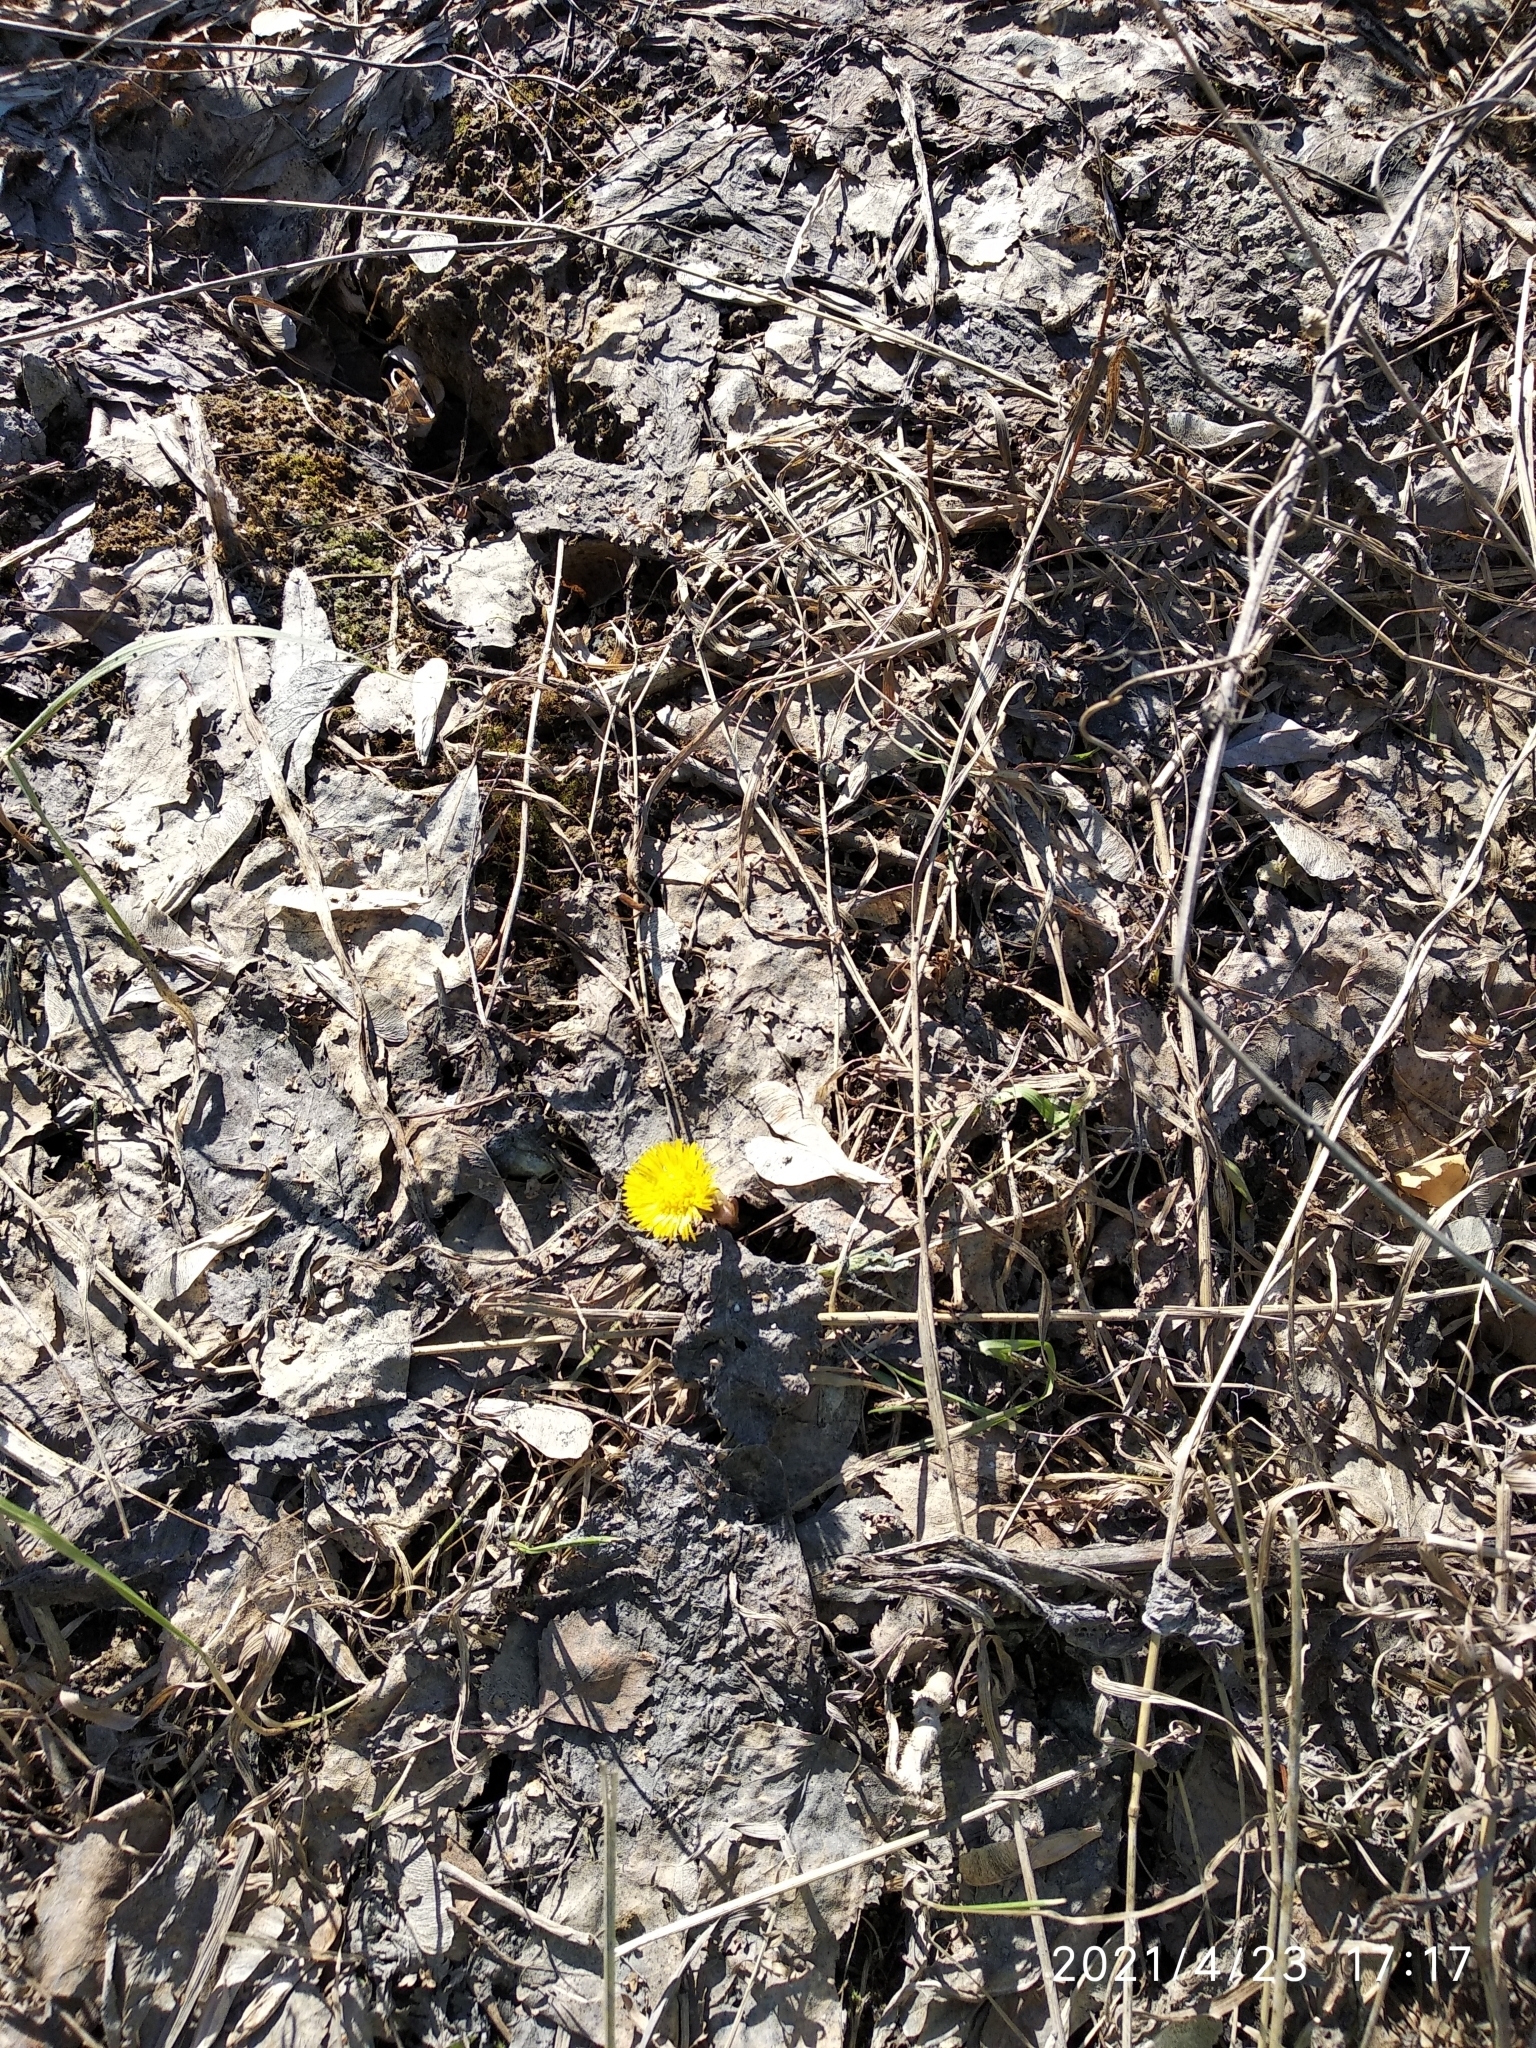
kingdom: Plantae
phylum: Tracheophyta
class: Magnoliopsida
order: Asterales
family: Asteraceae
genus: Tussilago
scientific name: Tussilago farfara
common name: Coltsfoot
